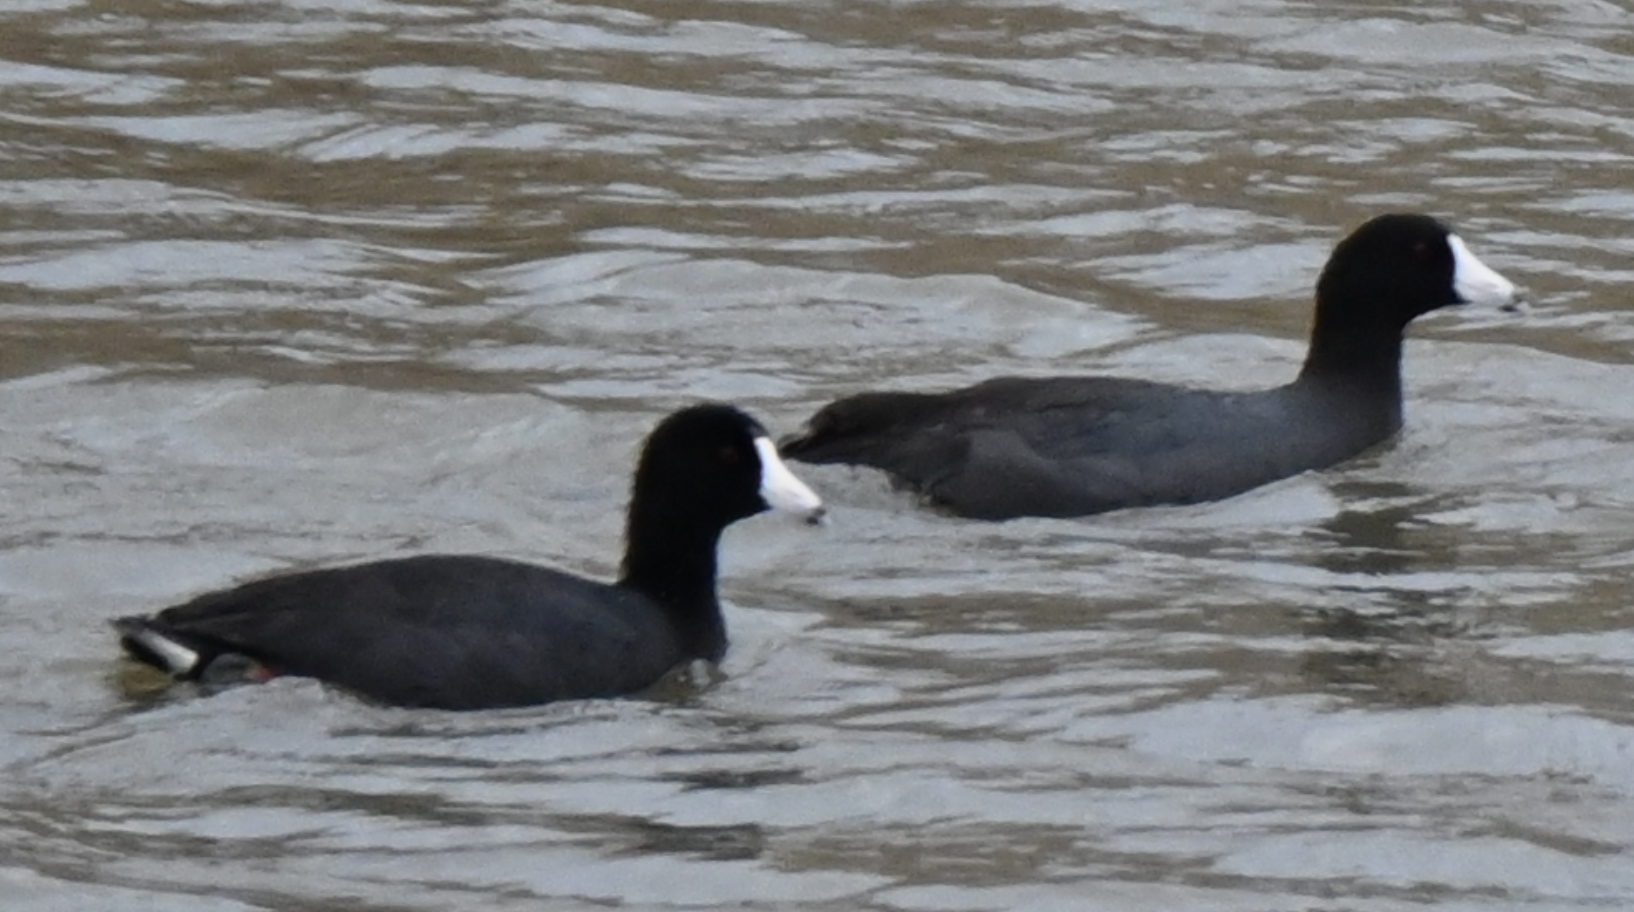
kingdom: Animalia
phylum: Chordata
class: Aves
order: Gruiformes
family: Rallidae
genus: Fulica
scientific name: Fulica americana
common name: American coot
